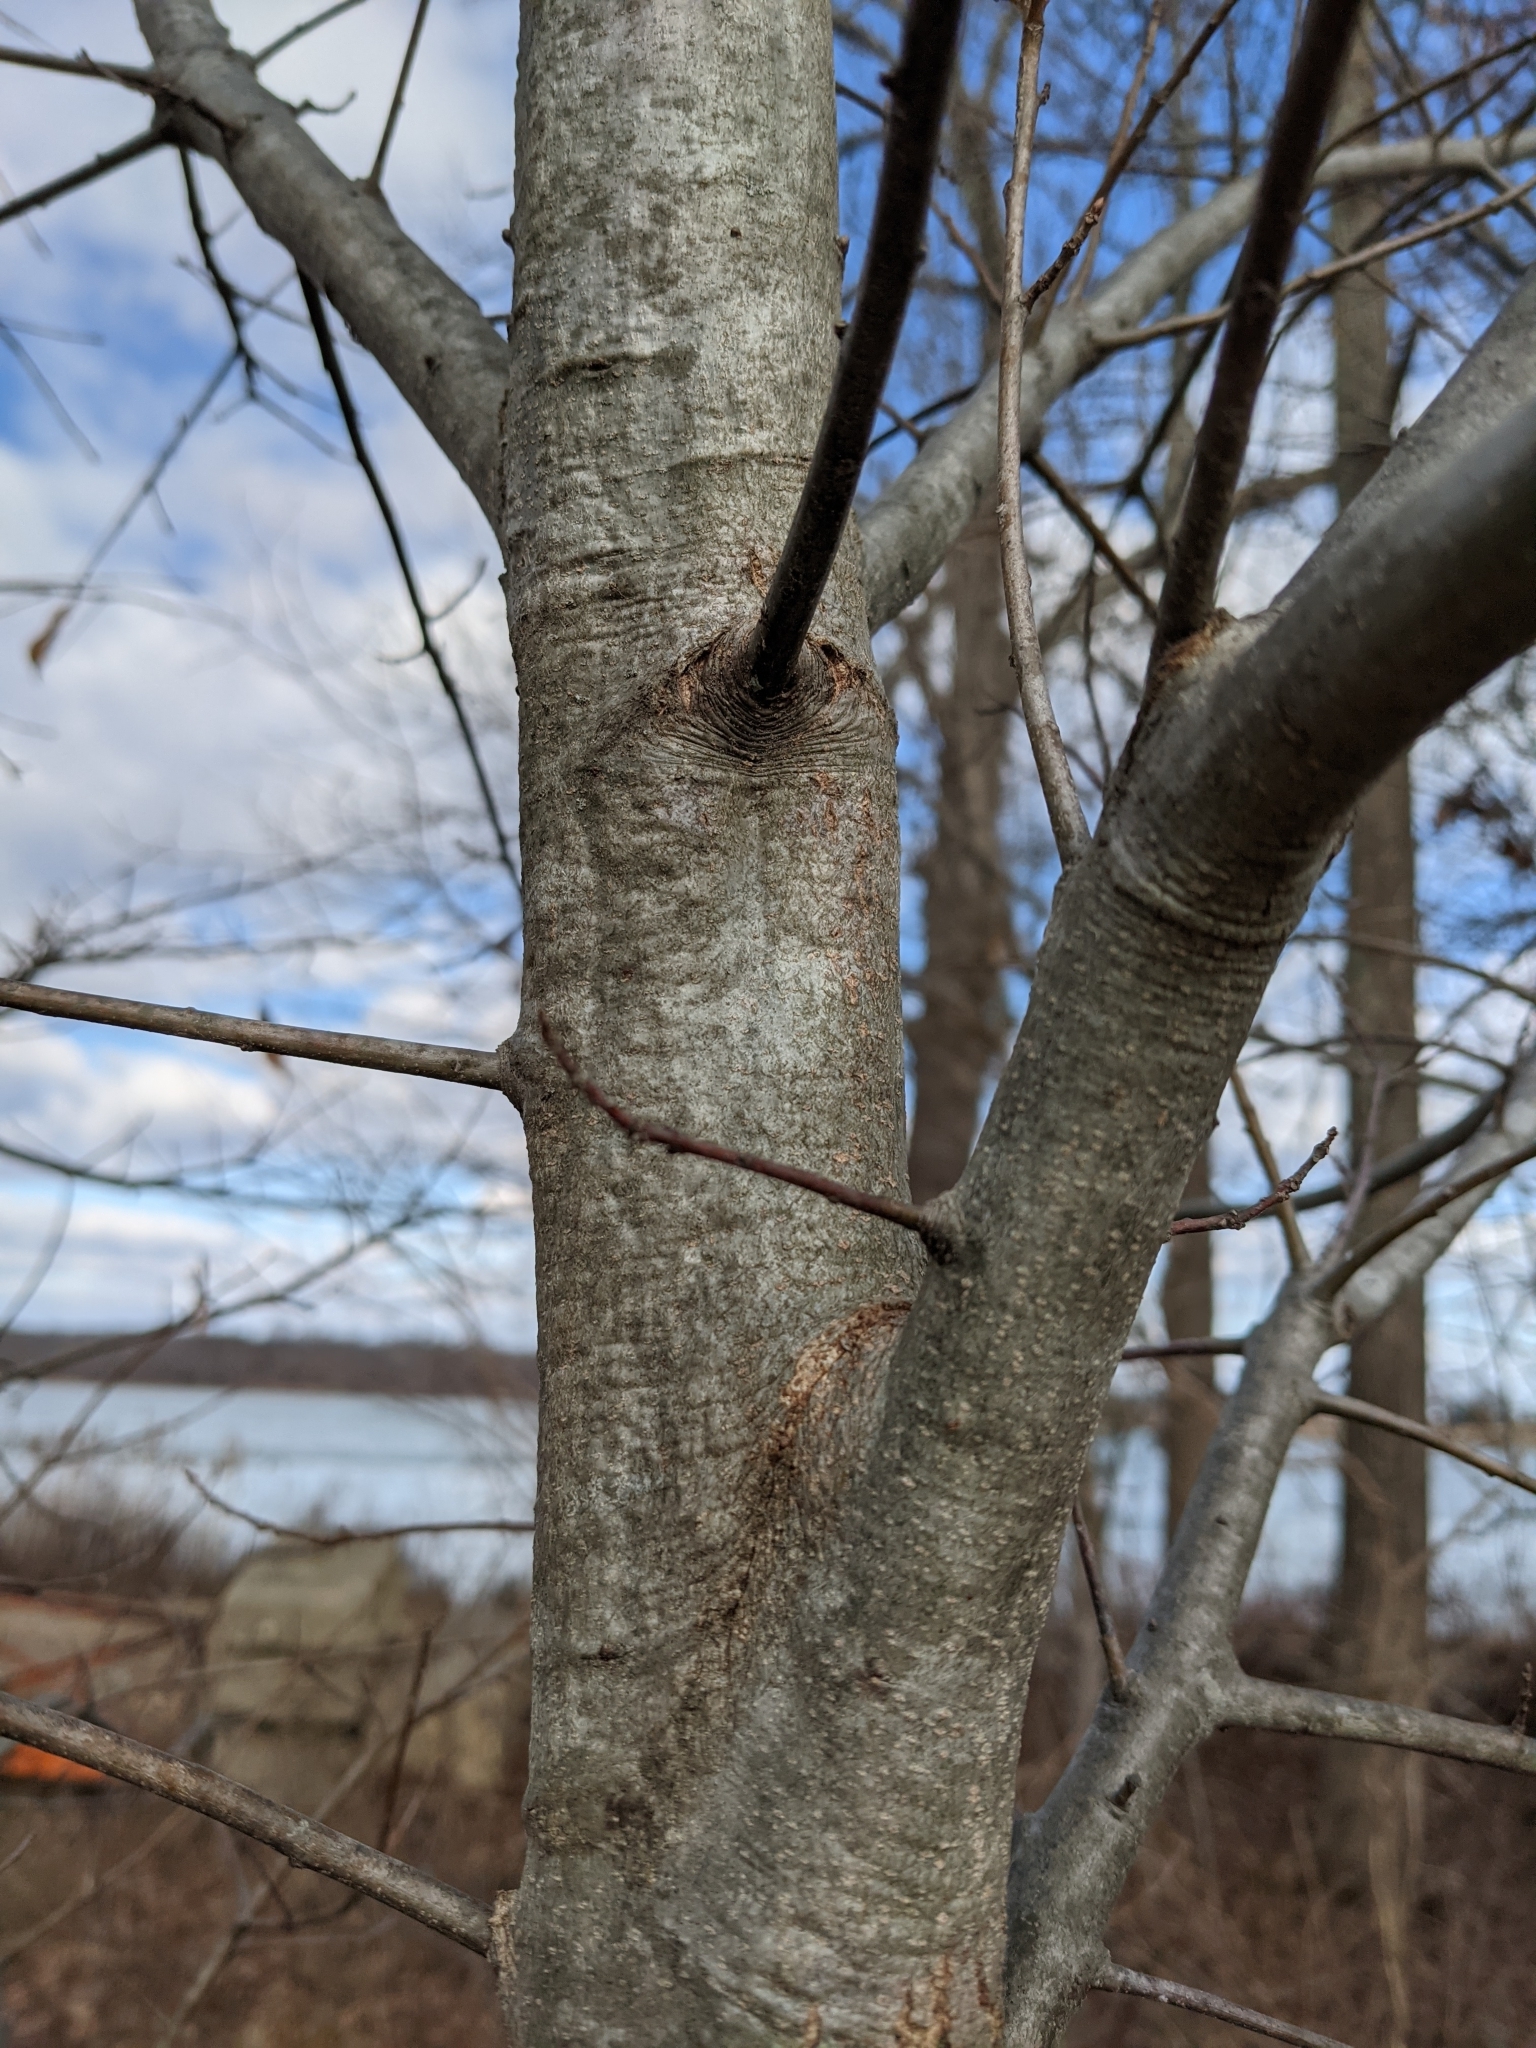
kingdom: Plantae
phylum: Tracheophyta
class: Magnoliopsida
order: Fagales
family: Fagaceae
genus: Quercus
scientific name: Quercus phellos
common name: Willow oak
